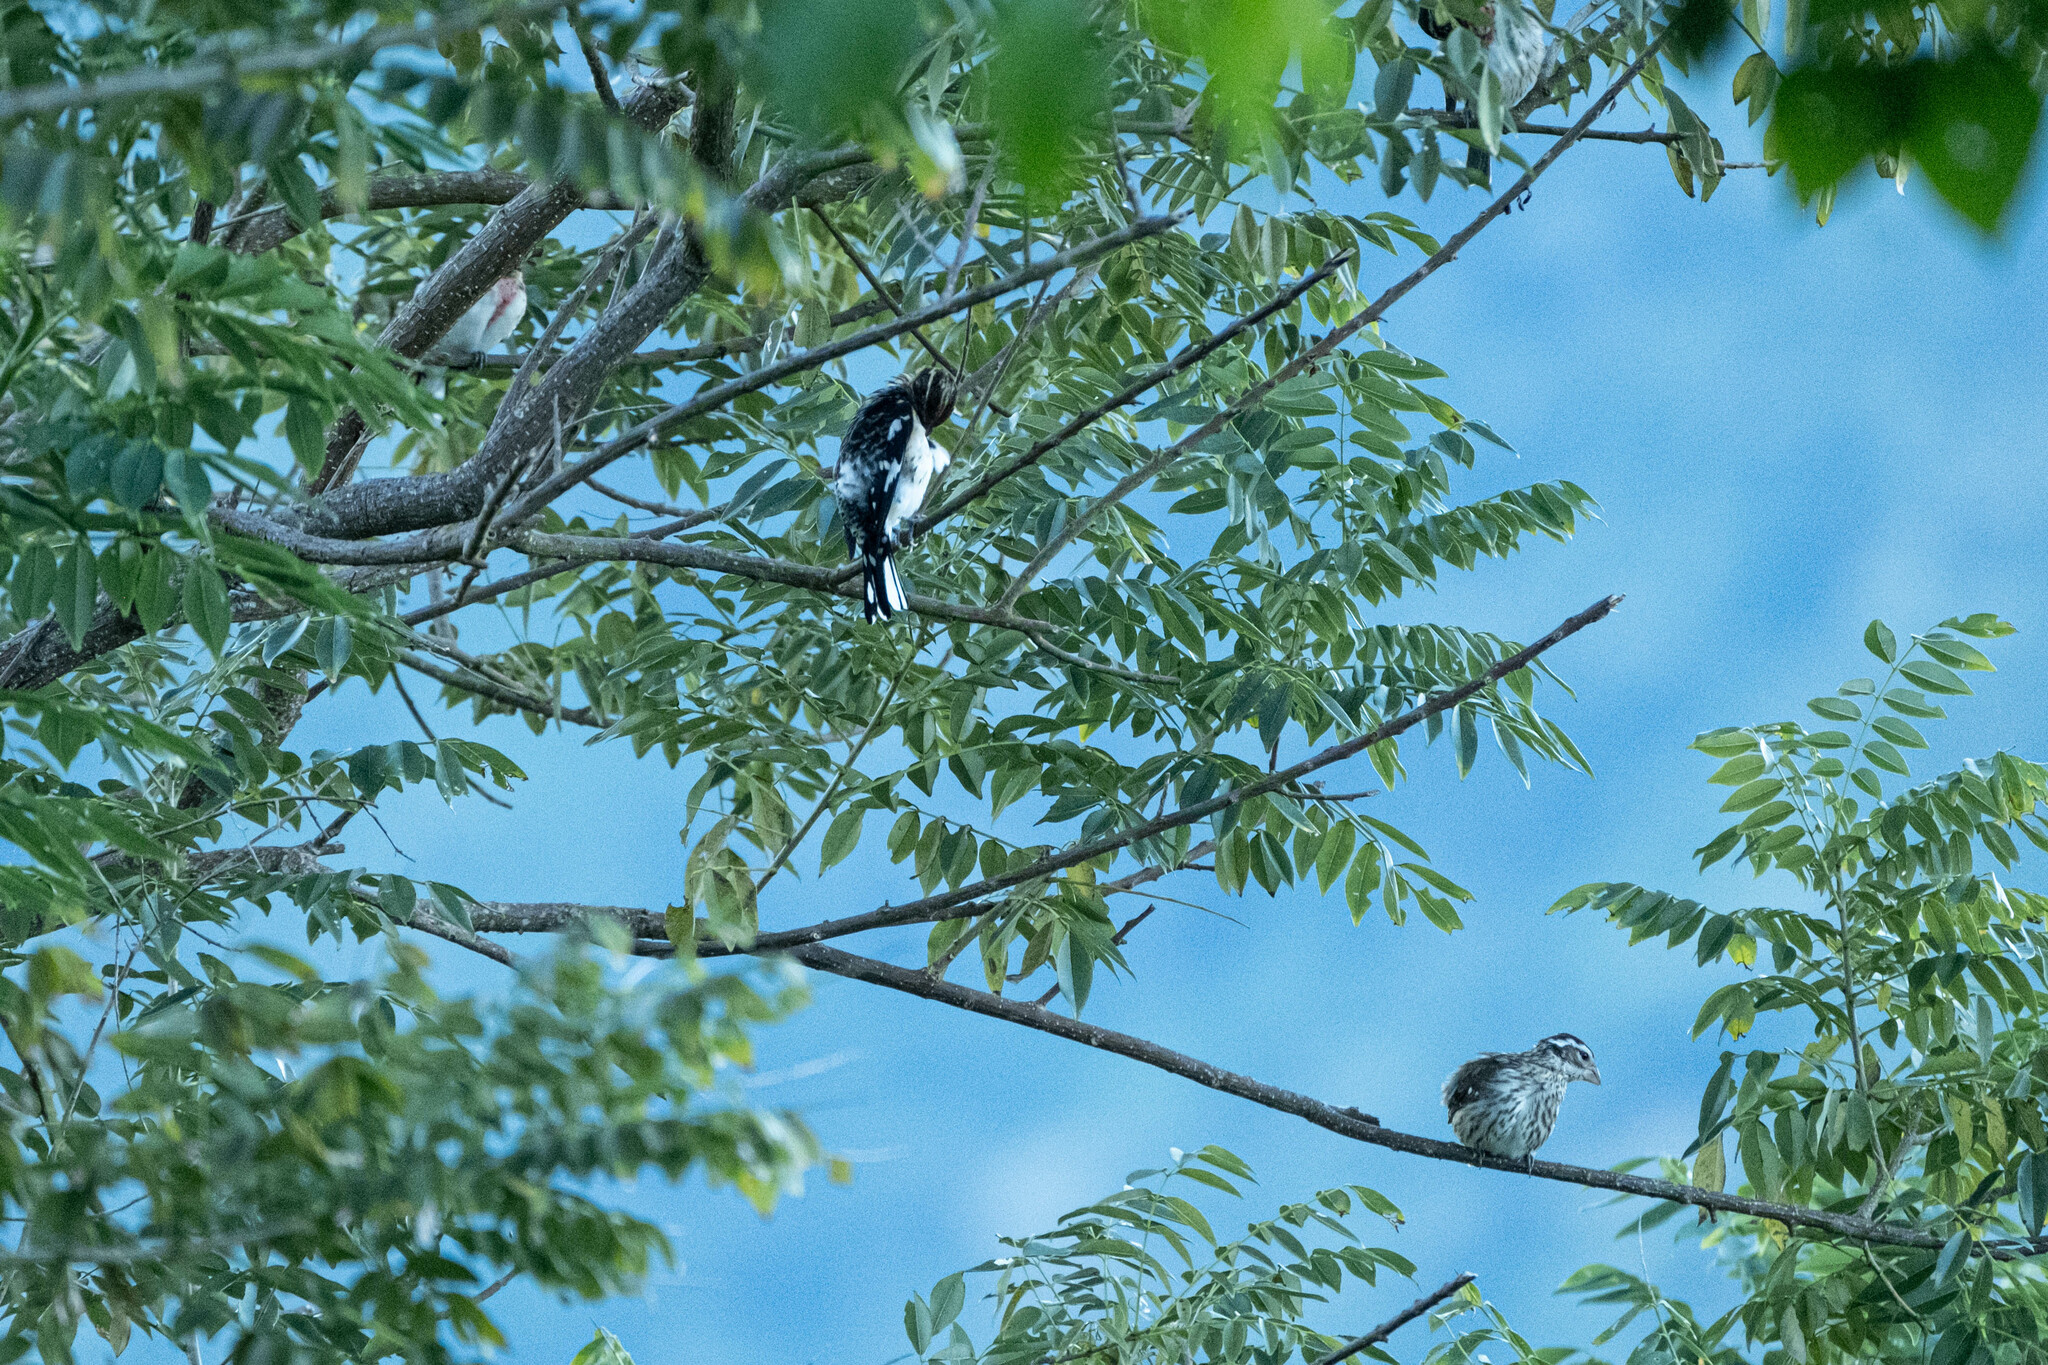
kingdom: Animalia
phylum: Chordata
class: Aves
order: Passeriformes
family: Cardinalidae
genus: Pheucticus
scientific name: Pheucticus ludovicianus
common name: Rose-breasted grosbeak
